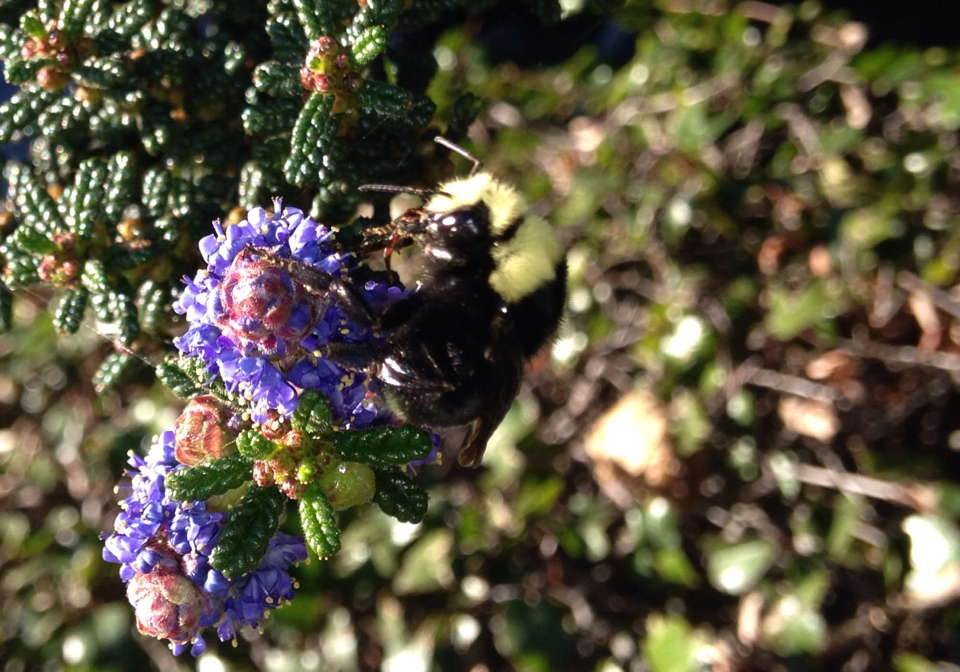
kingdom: Animalia
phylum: Arthropoda
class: Insecta
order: Hymenoptera
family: Apidae
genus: Bombus
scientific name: Bombus vosnesenskii
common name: Vosnesensky bumble bee
